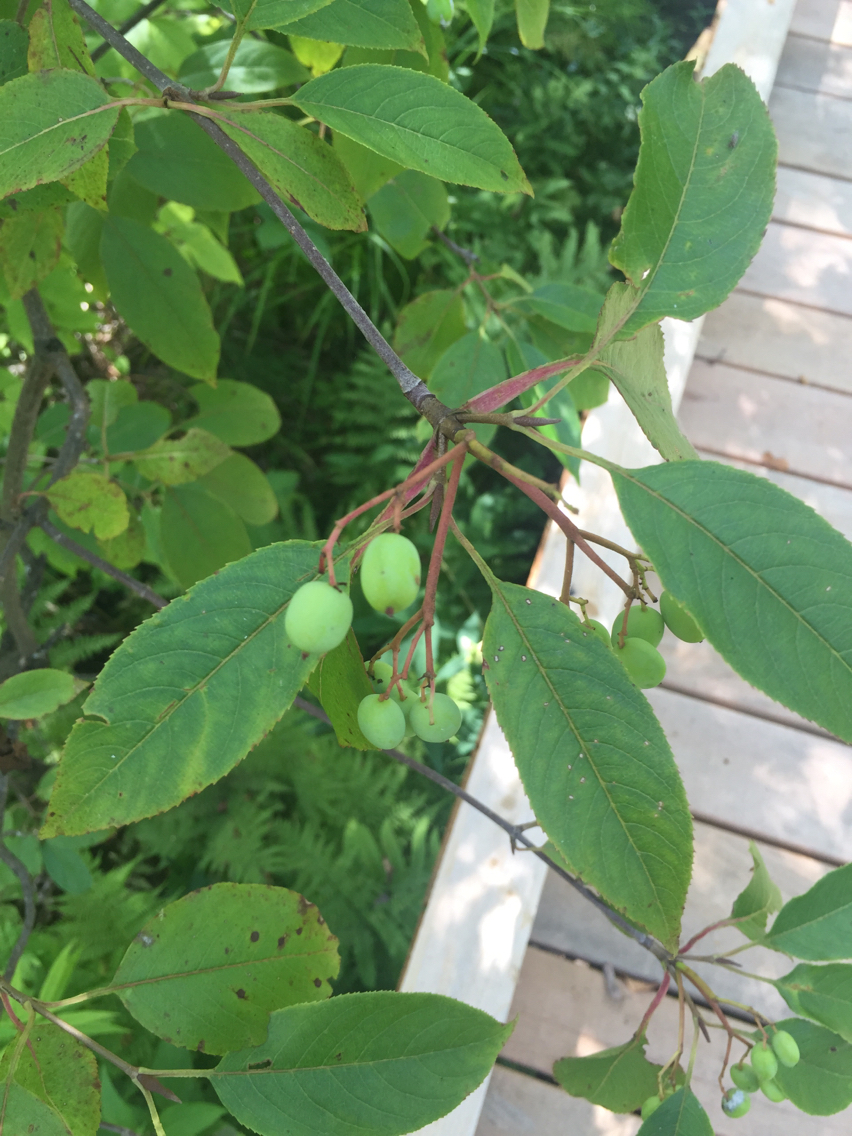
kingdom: Plantae
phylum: Tracheophyta
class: Magnoliopsida
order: Dipsacales
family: Viburnaceae
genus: Viburnum
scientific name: Viburnum lentago
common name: Black haw
